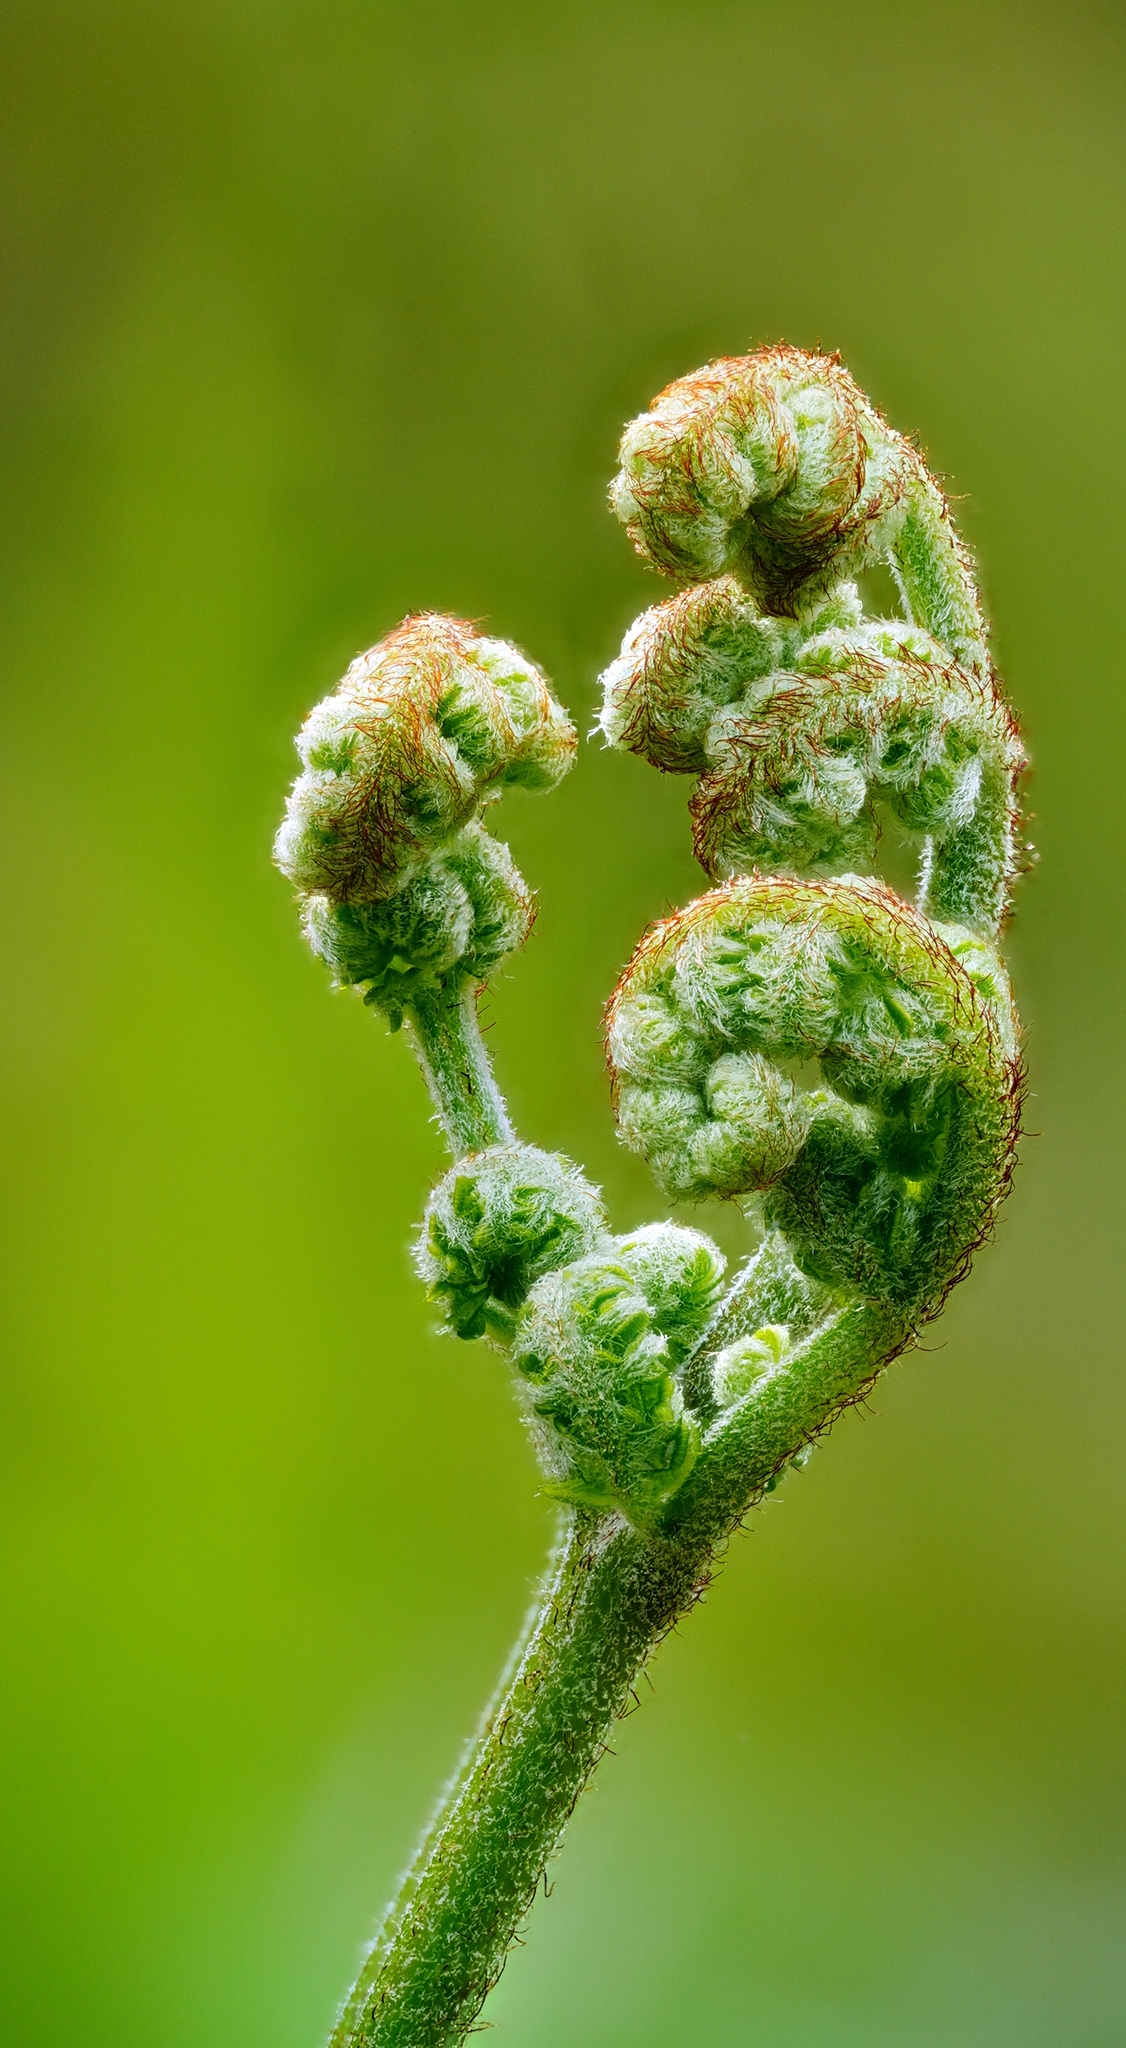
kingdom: Plantae
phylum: Tracheophyta
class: Polypodiopsida
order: Polypodiales
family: Dennstaedtiaceae
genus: Pteridium
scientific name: Pteridium aquilinum
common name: Bracken
